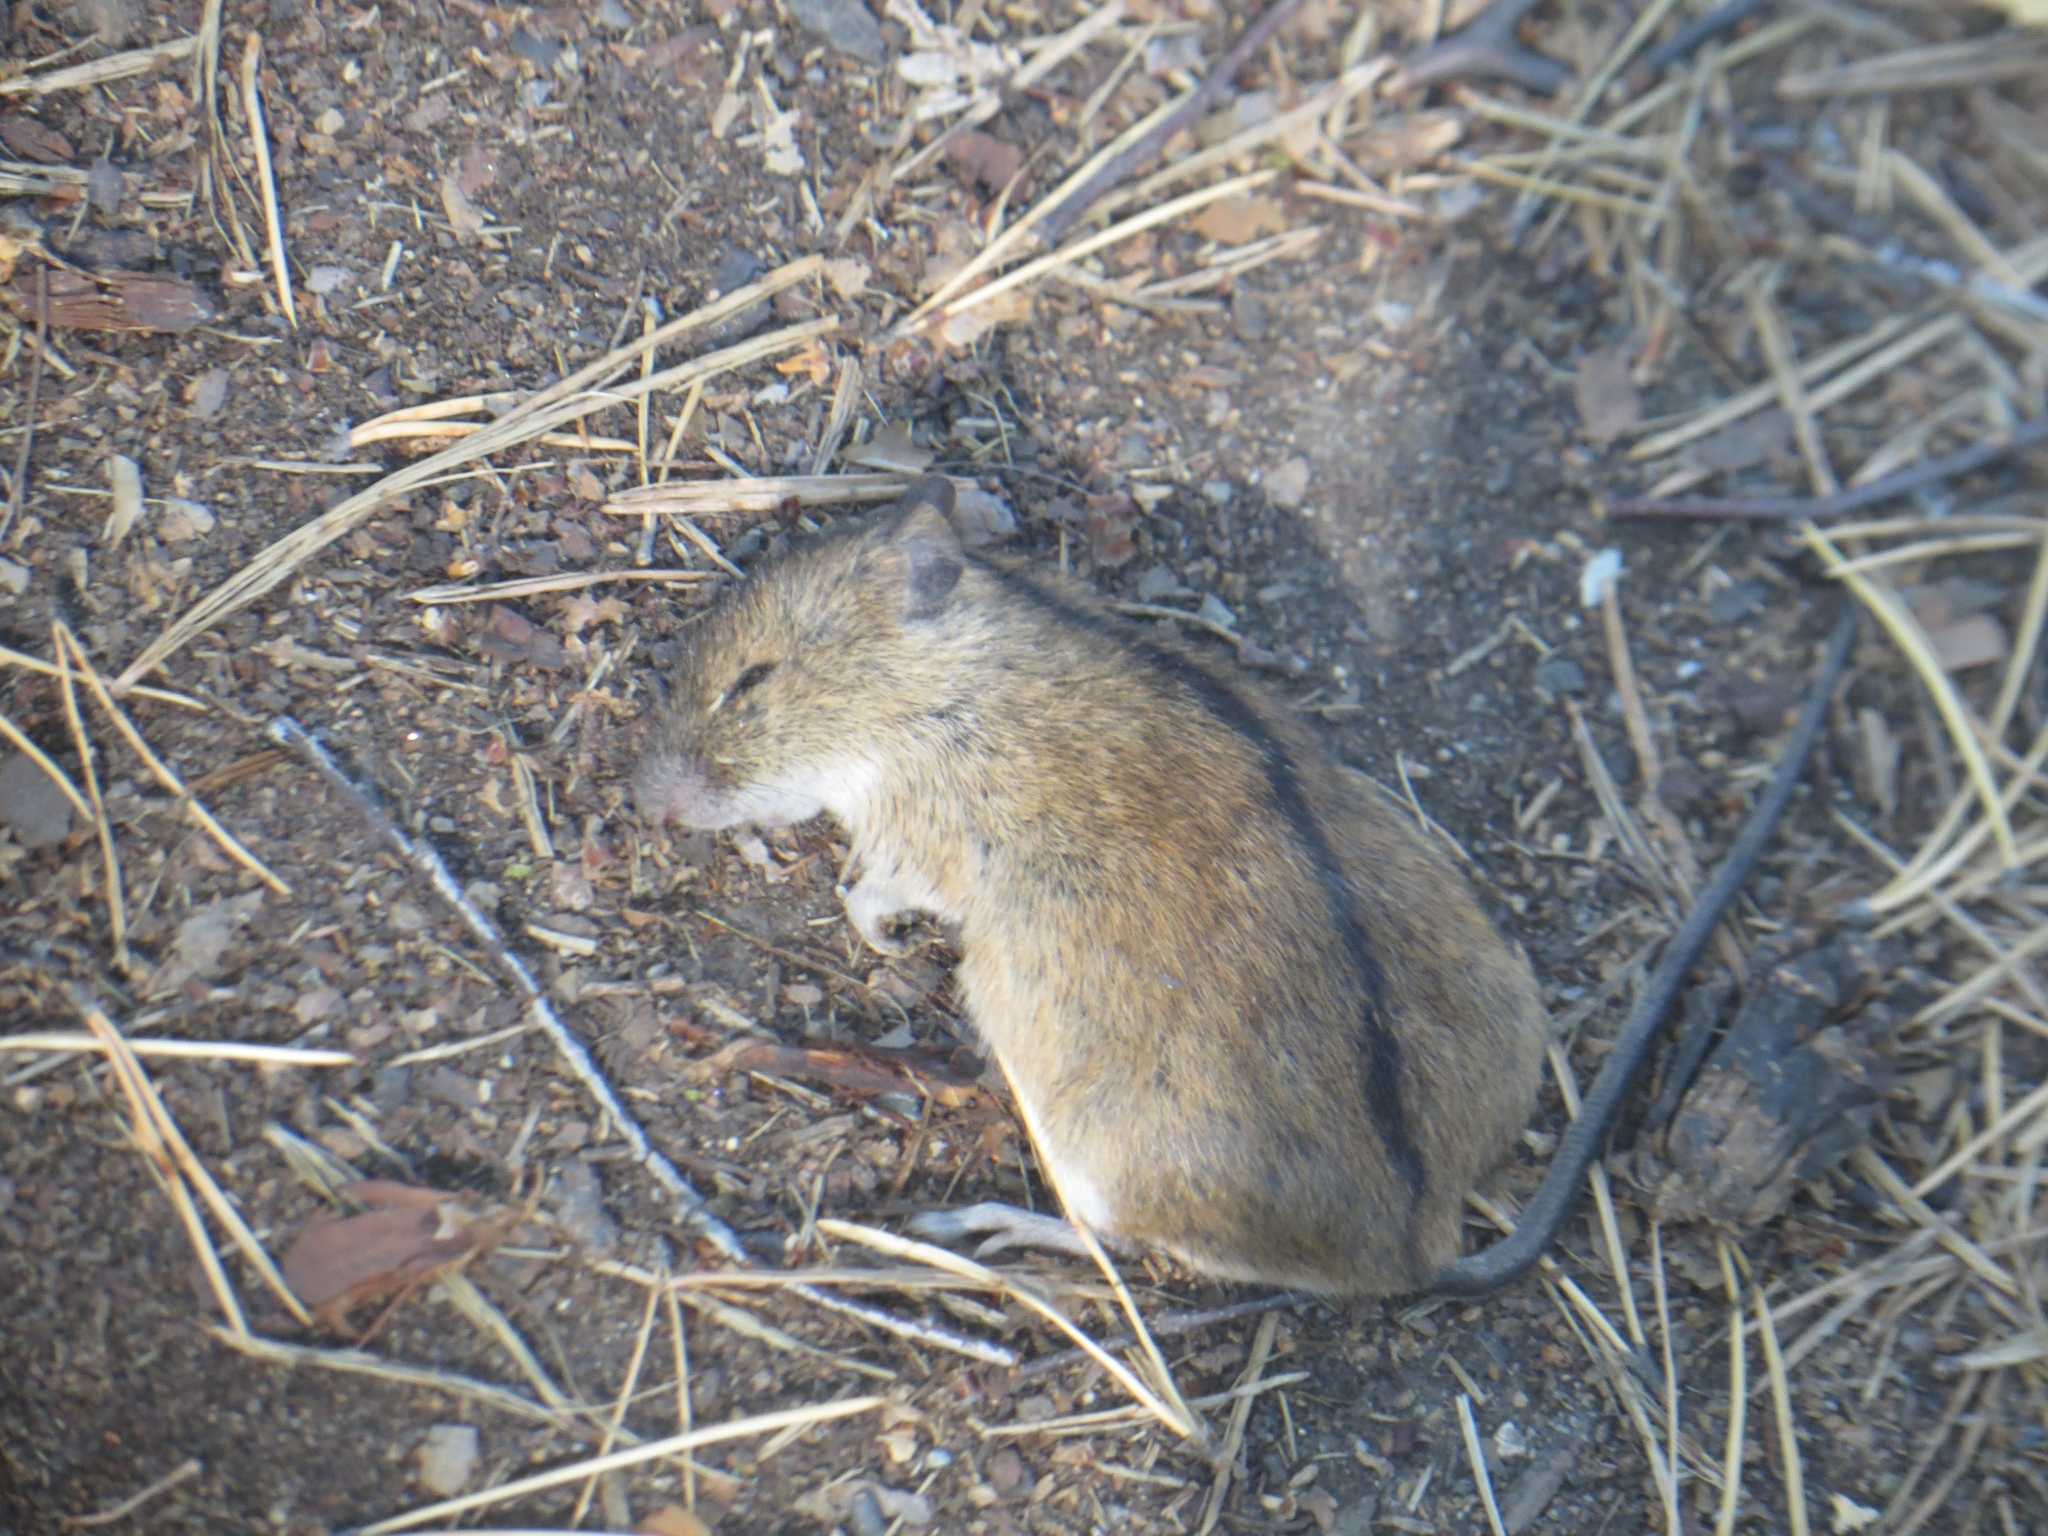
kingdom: Animalia
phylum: Chordata
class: Mammalia
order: Rodentia
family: Muridae
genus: Apodemus
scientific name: Apodemus agrarius
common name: Striped field mouse
